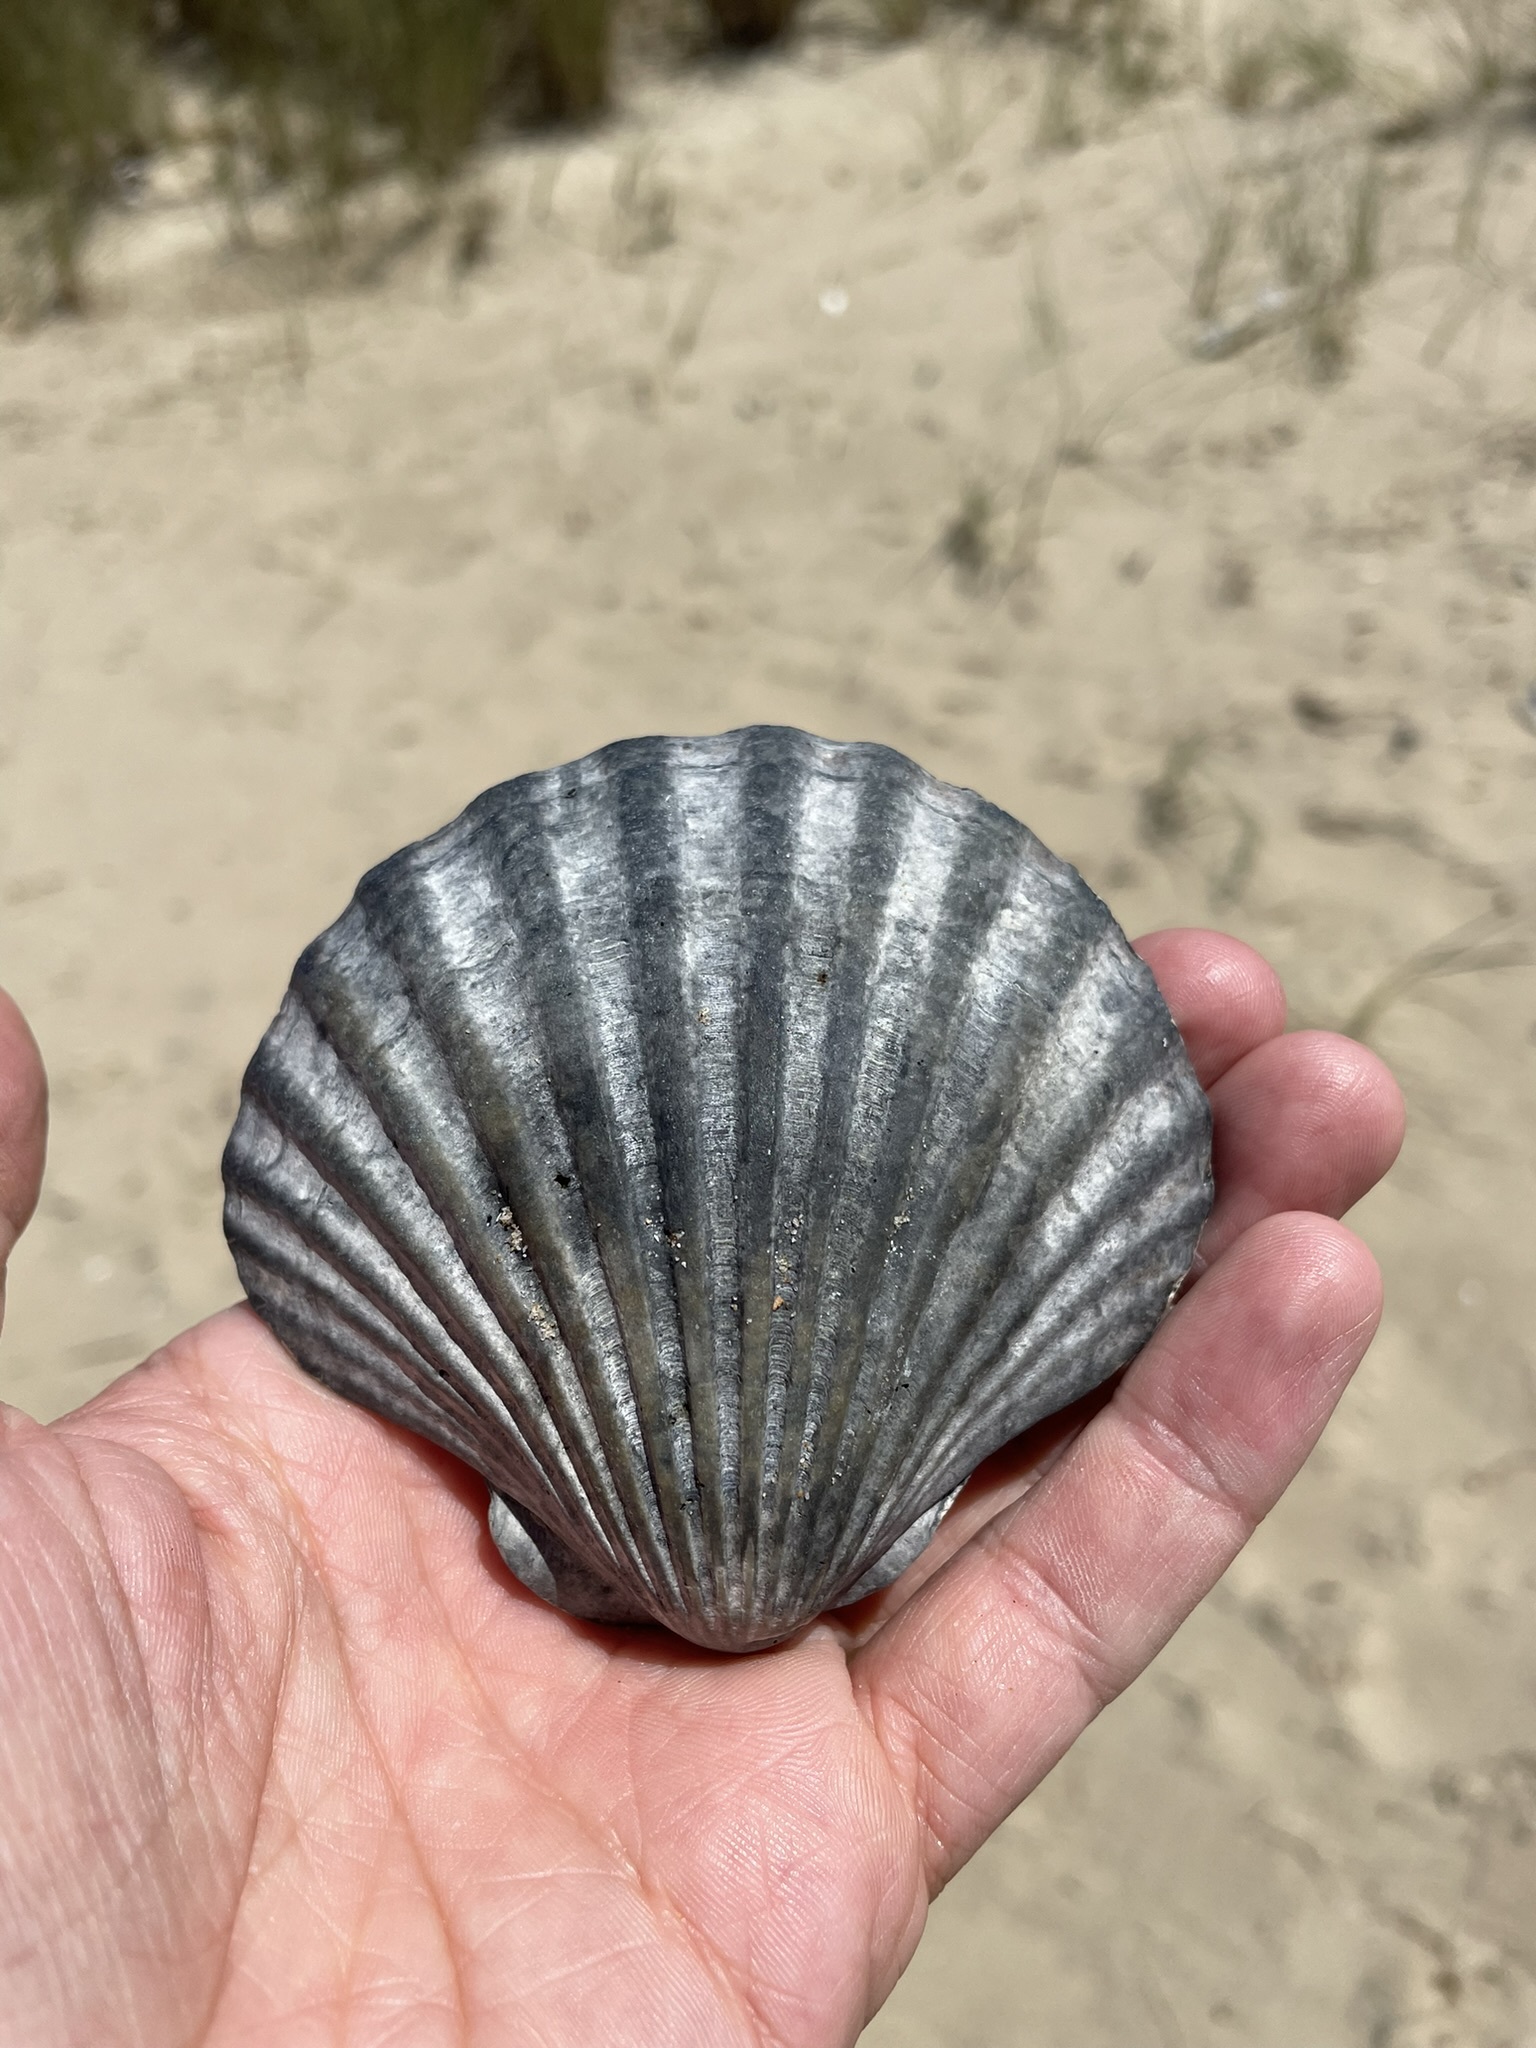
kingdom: Animalia
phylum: Mollusca
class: Bivalvia
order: Pectinida
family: Pectinidae
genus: Pecten
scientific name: Pecten fumatus
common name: Australian scallop
